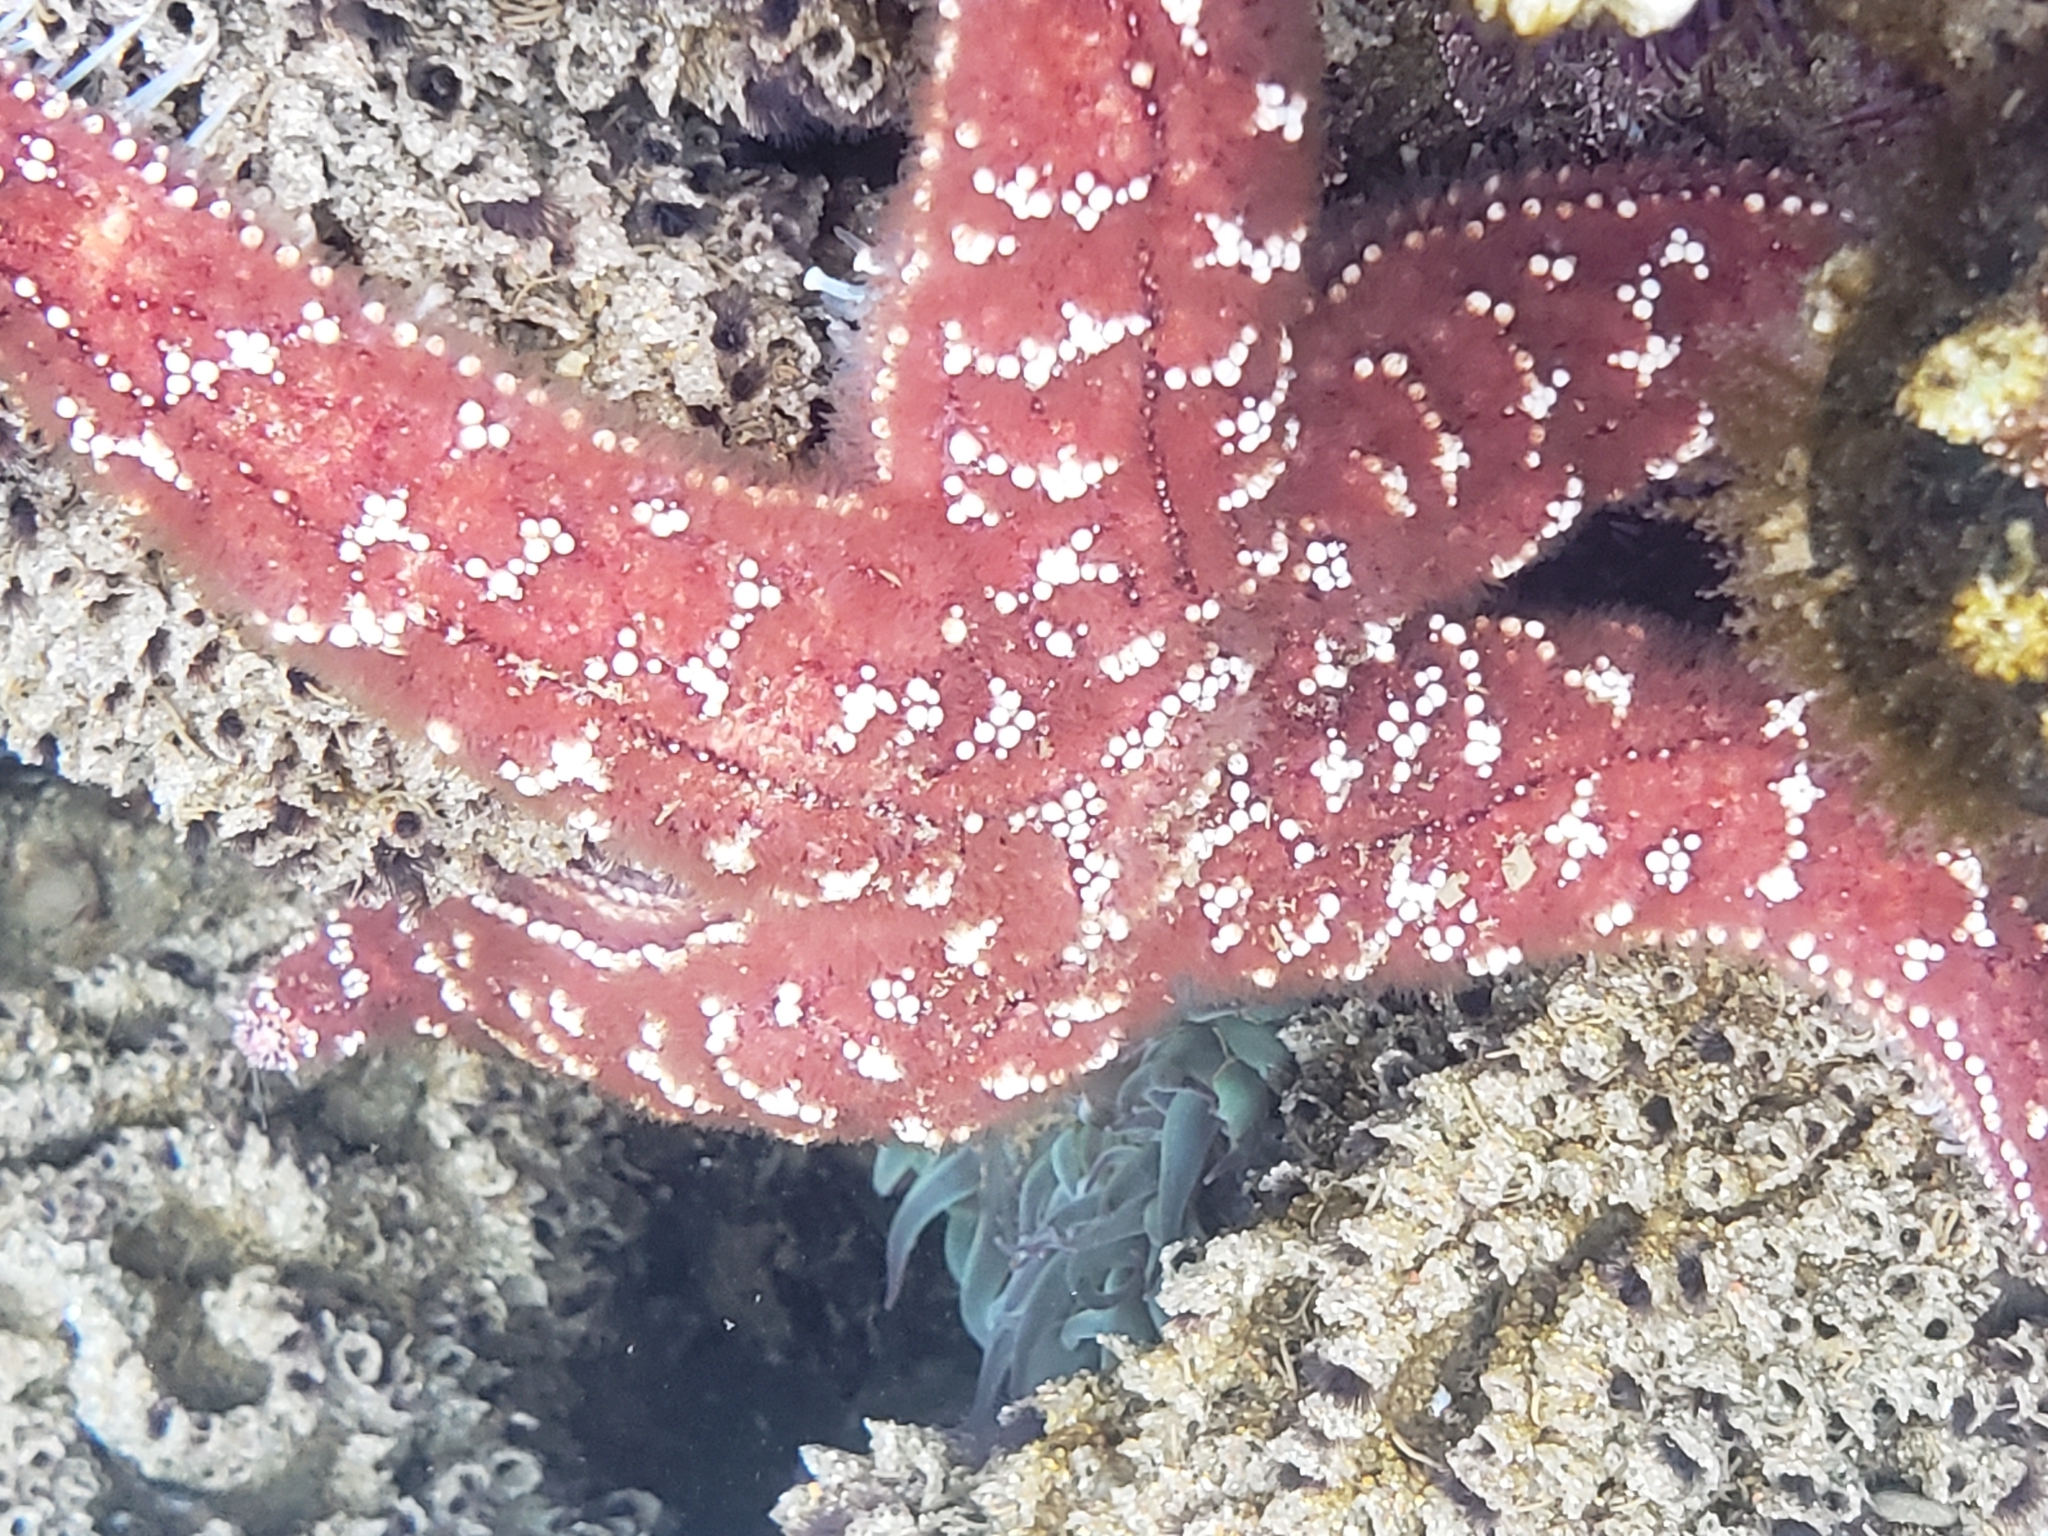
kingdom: Animalia
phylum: Echinodermata
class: Asteroidea
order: Forcipulatida
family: Asteriidae
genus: Pisaster
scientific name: Pisaster ochraceus
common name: Ochre stars
